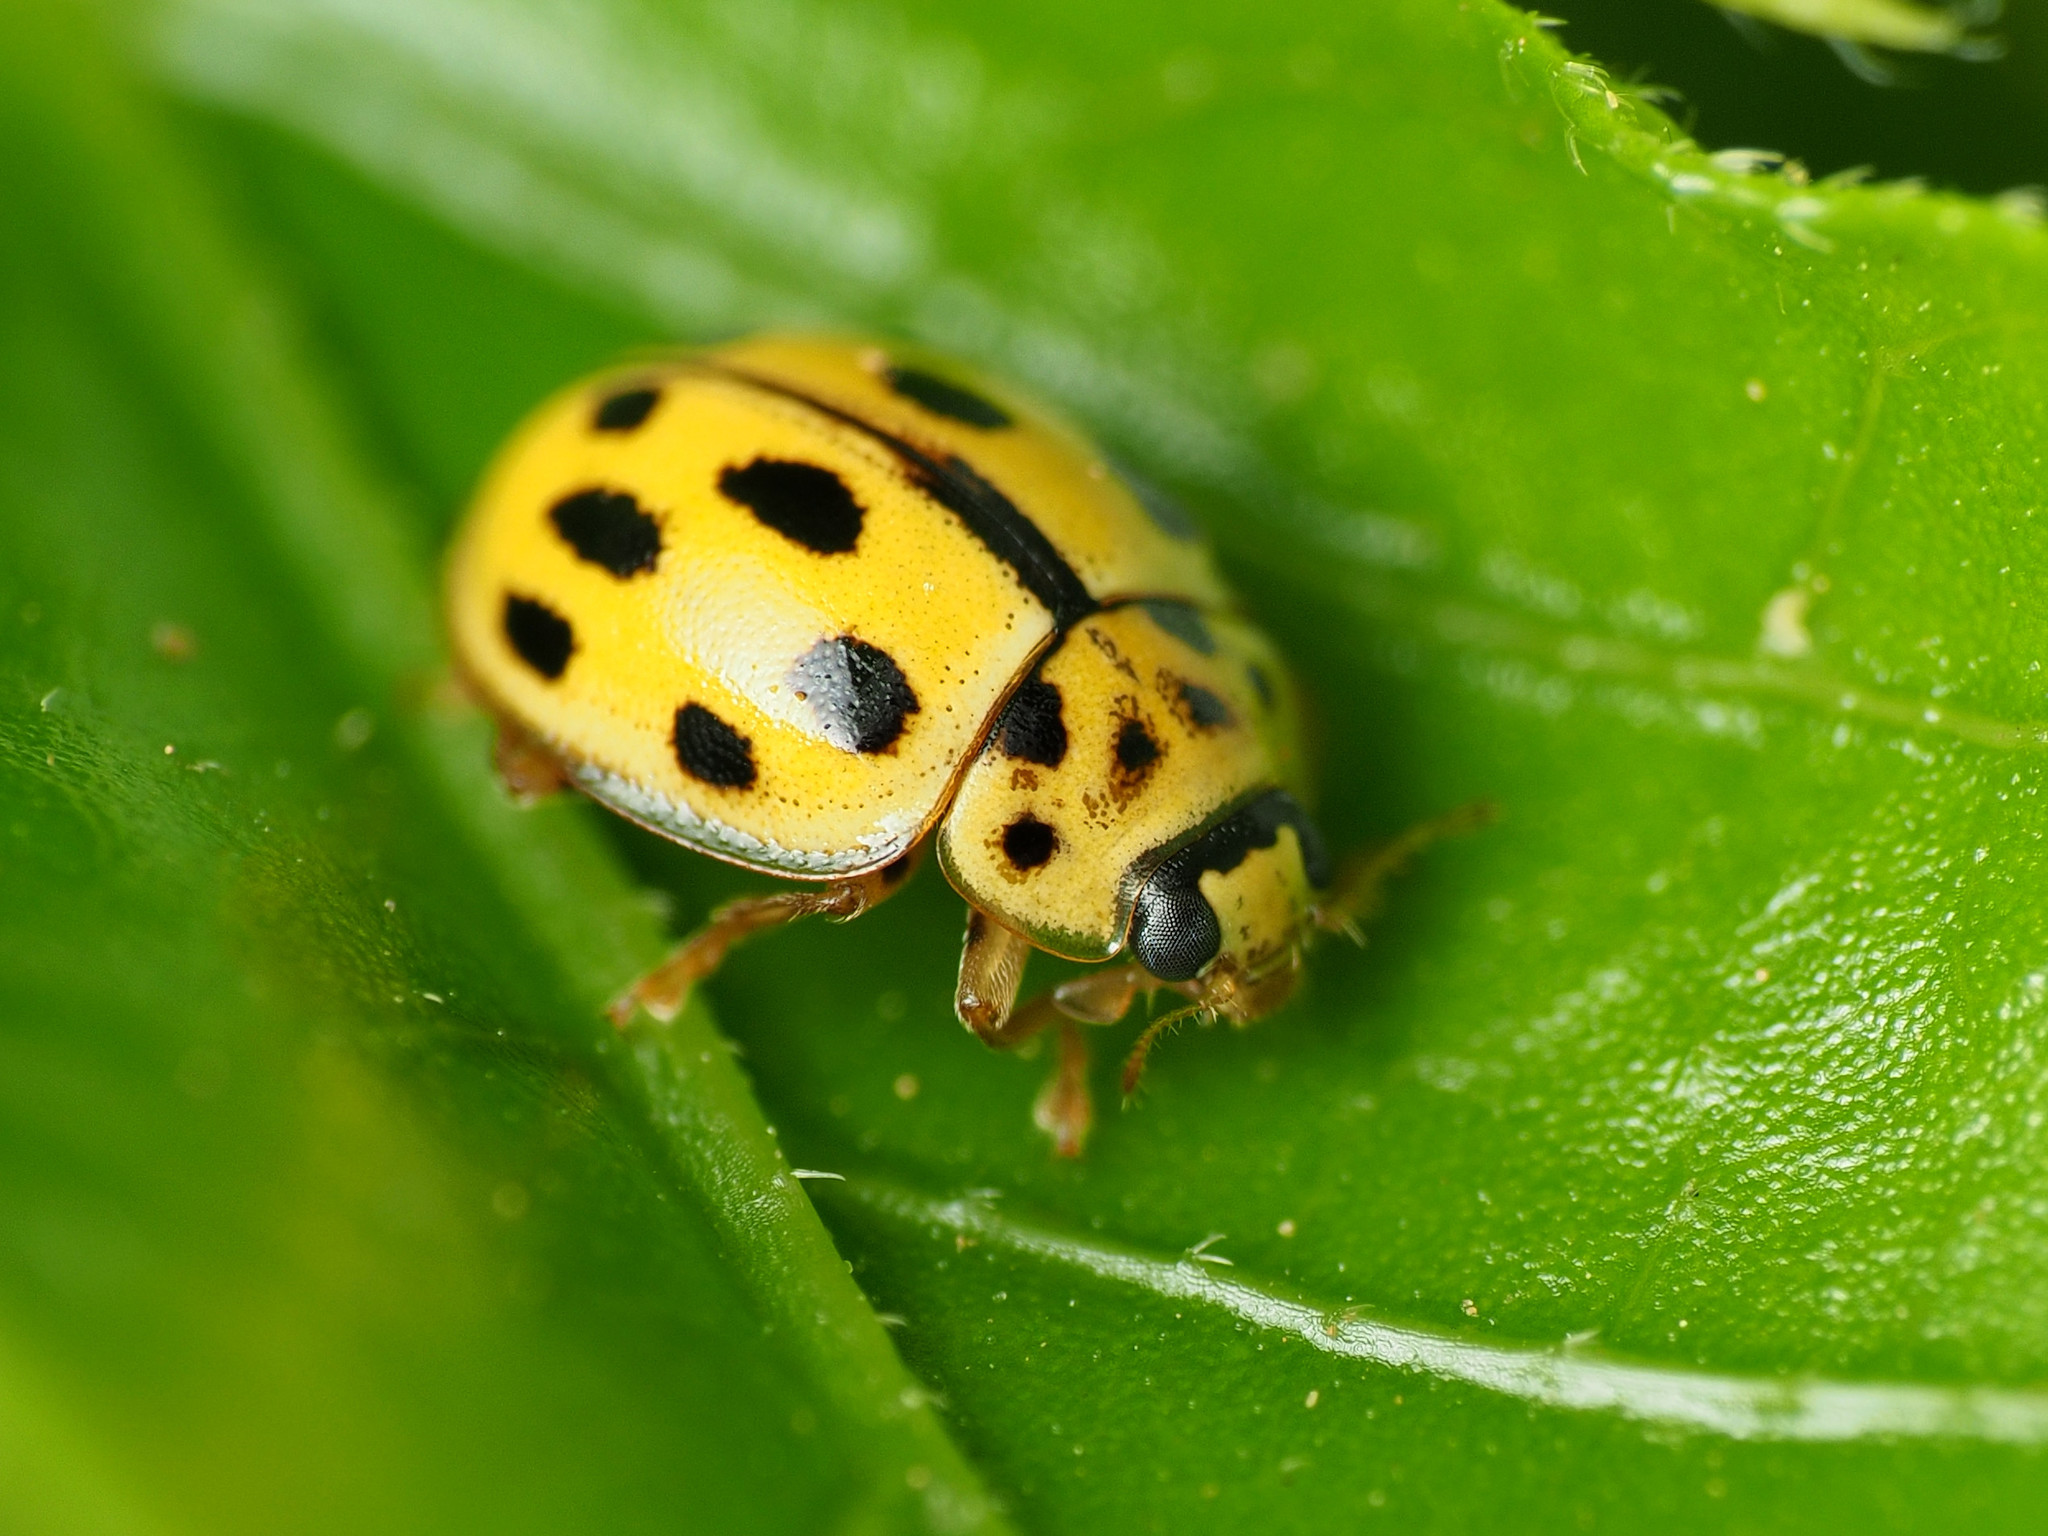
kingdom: Animalia
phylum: Arthropoda
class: Insecta
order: Coleoptera
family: Coccinellidae
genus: Propylaea
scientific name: Propylaea quatuordecimpunctata
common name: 14-spotted ladybird beetle
